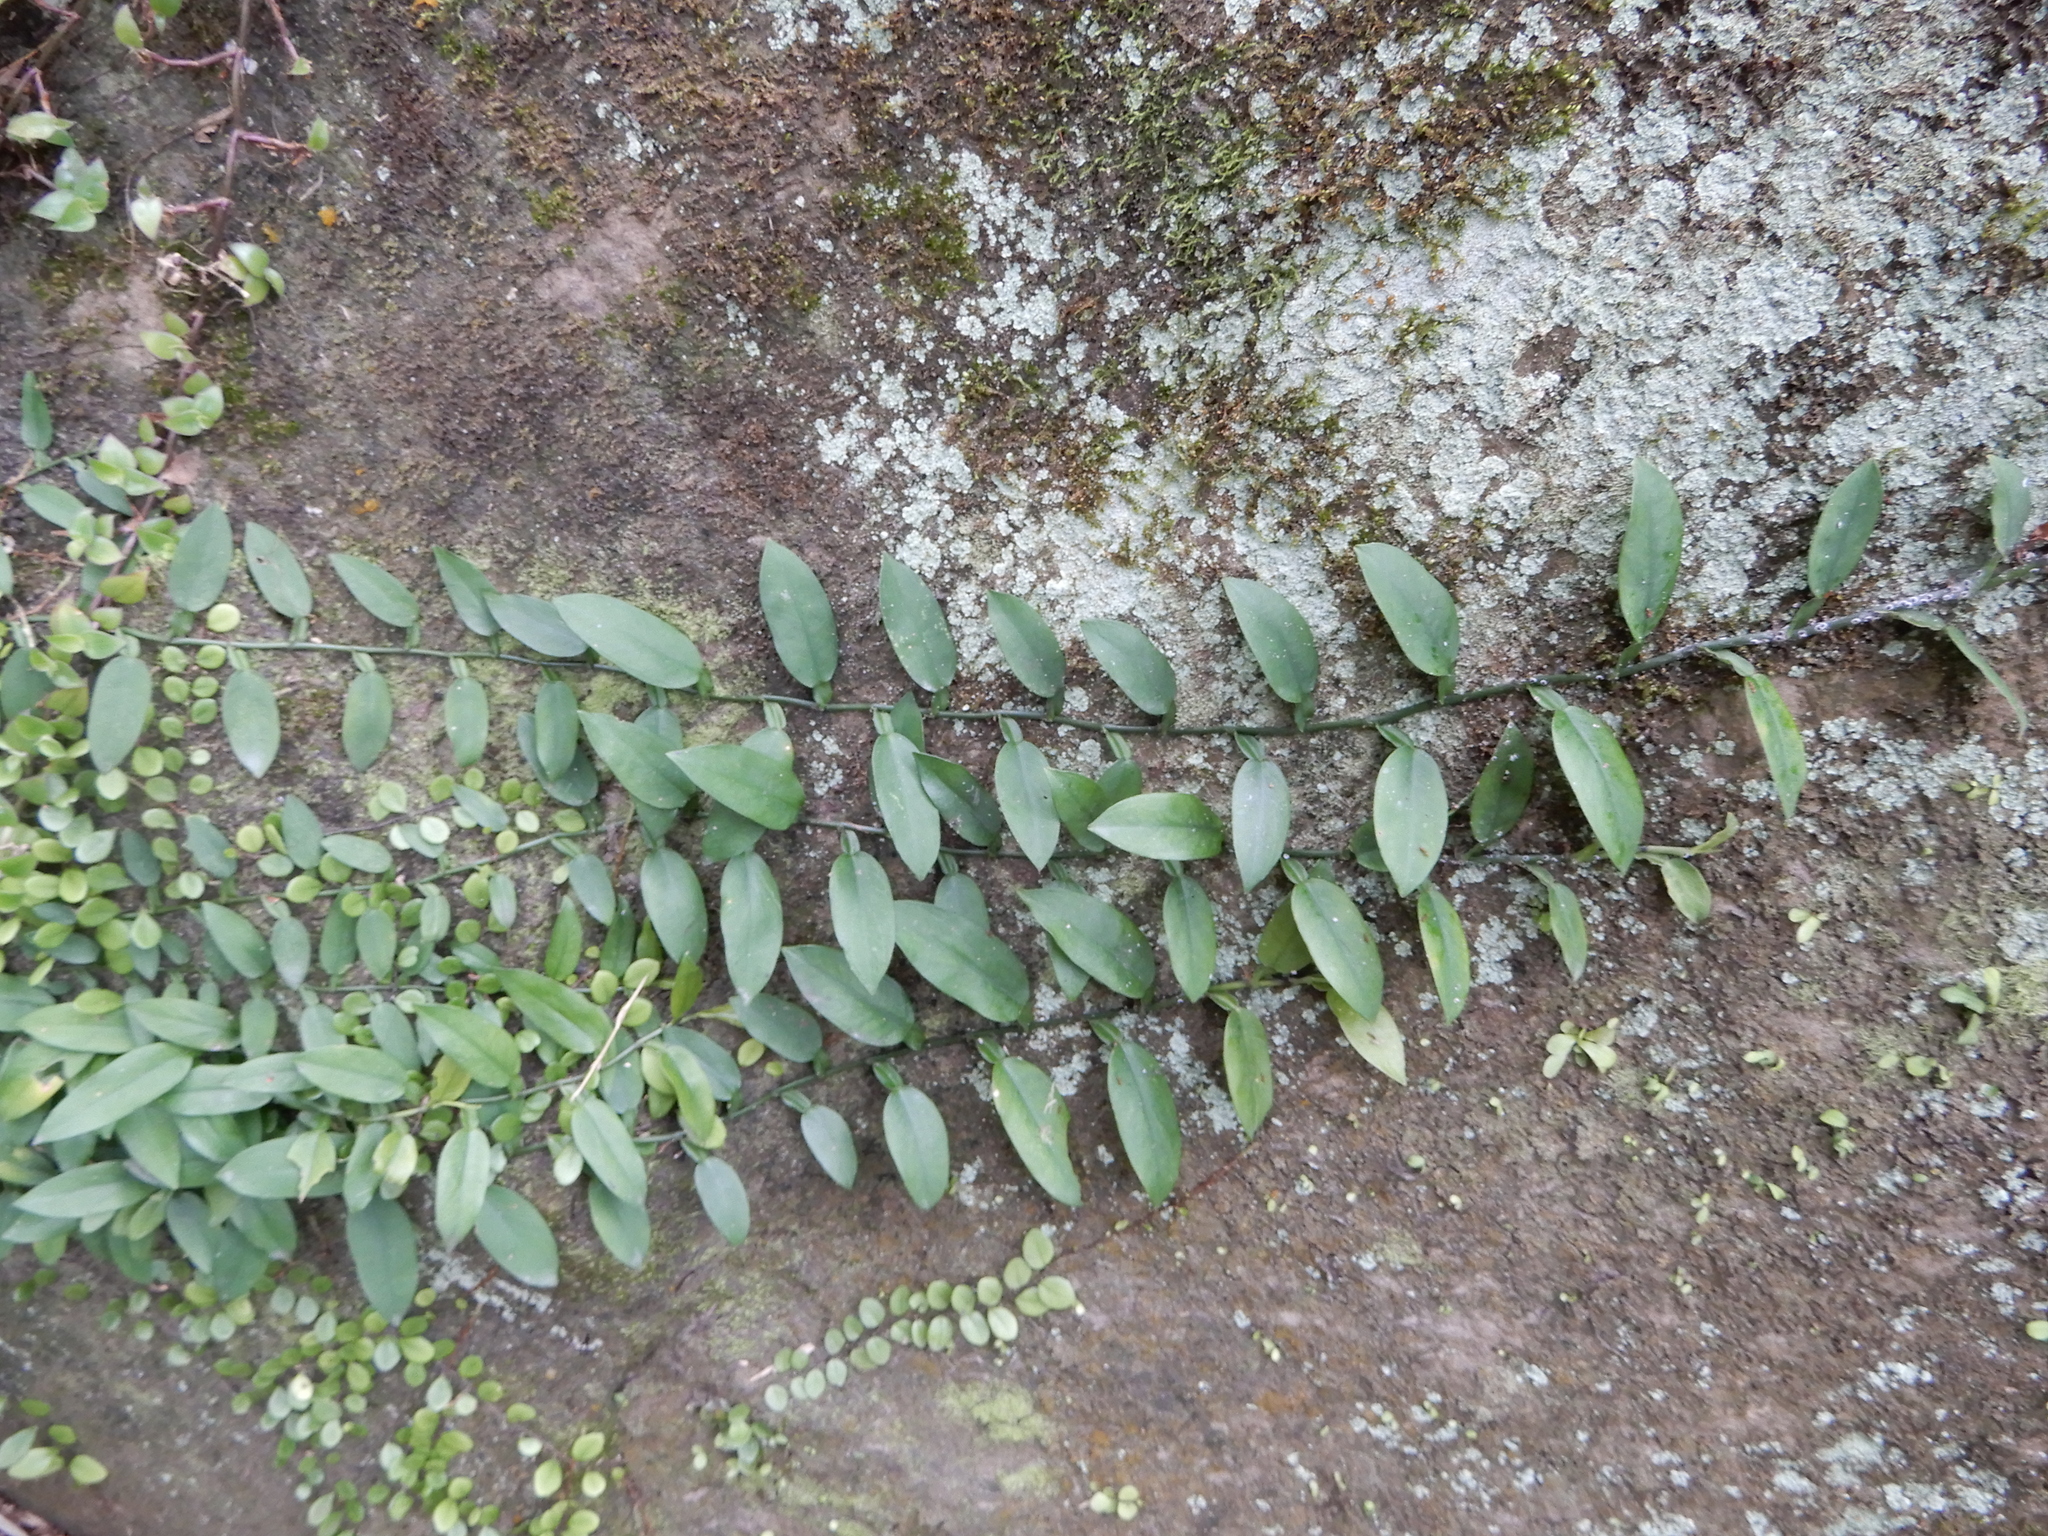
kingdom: Plantae
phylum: Tracheophyta
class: Liliopsida
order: Alismatales
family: Araceae
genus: Pothos
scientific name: Pothos chinensis
